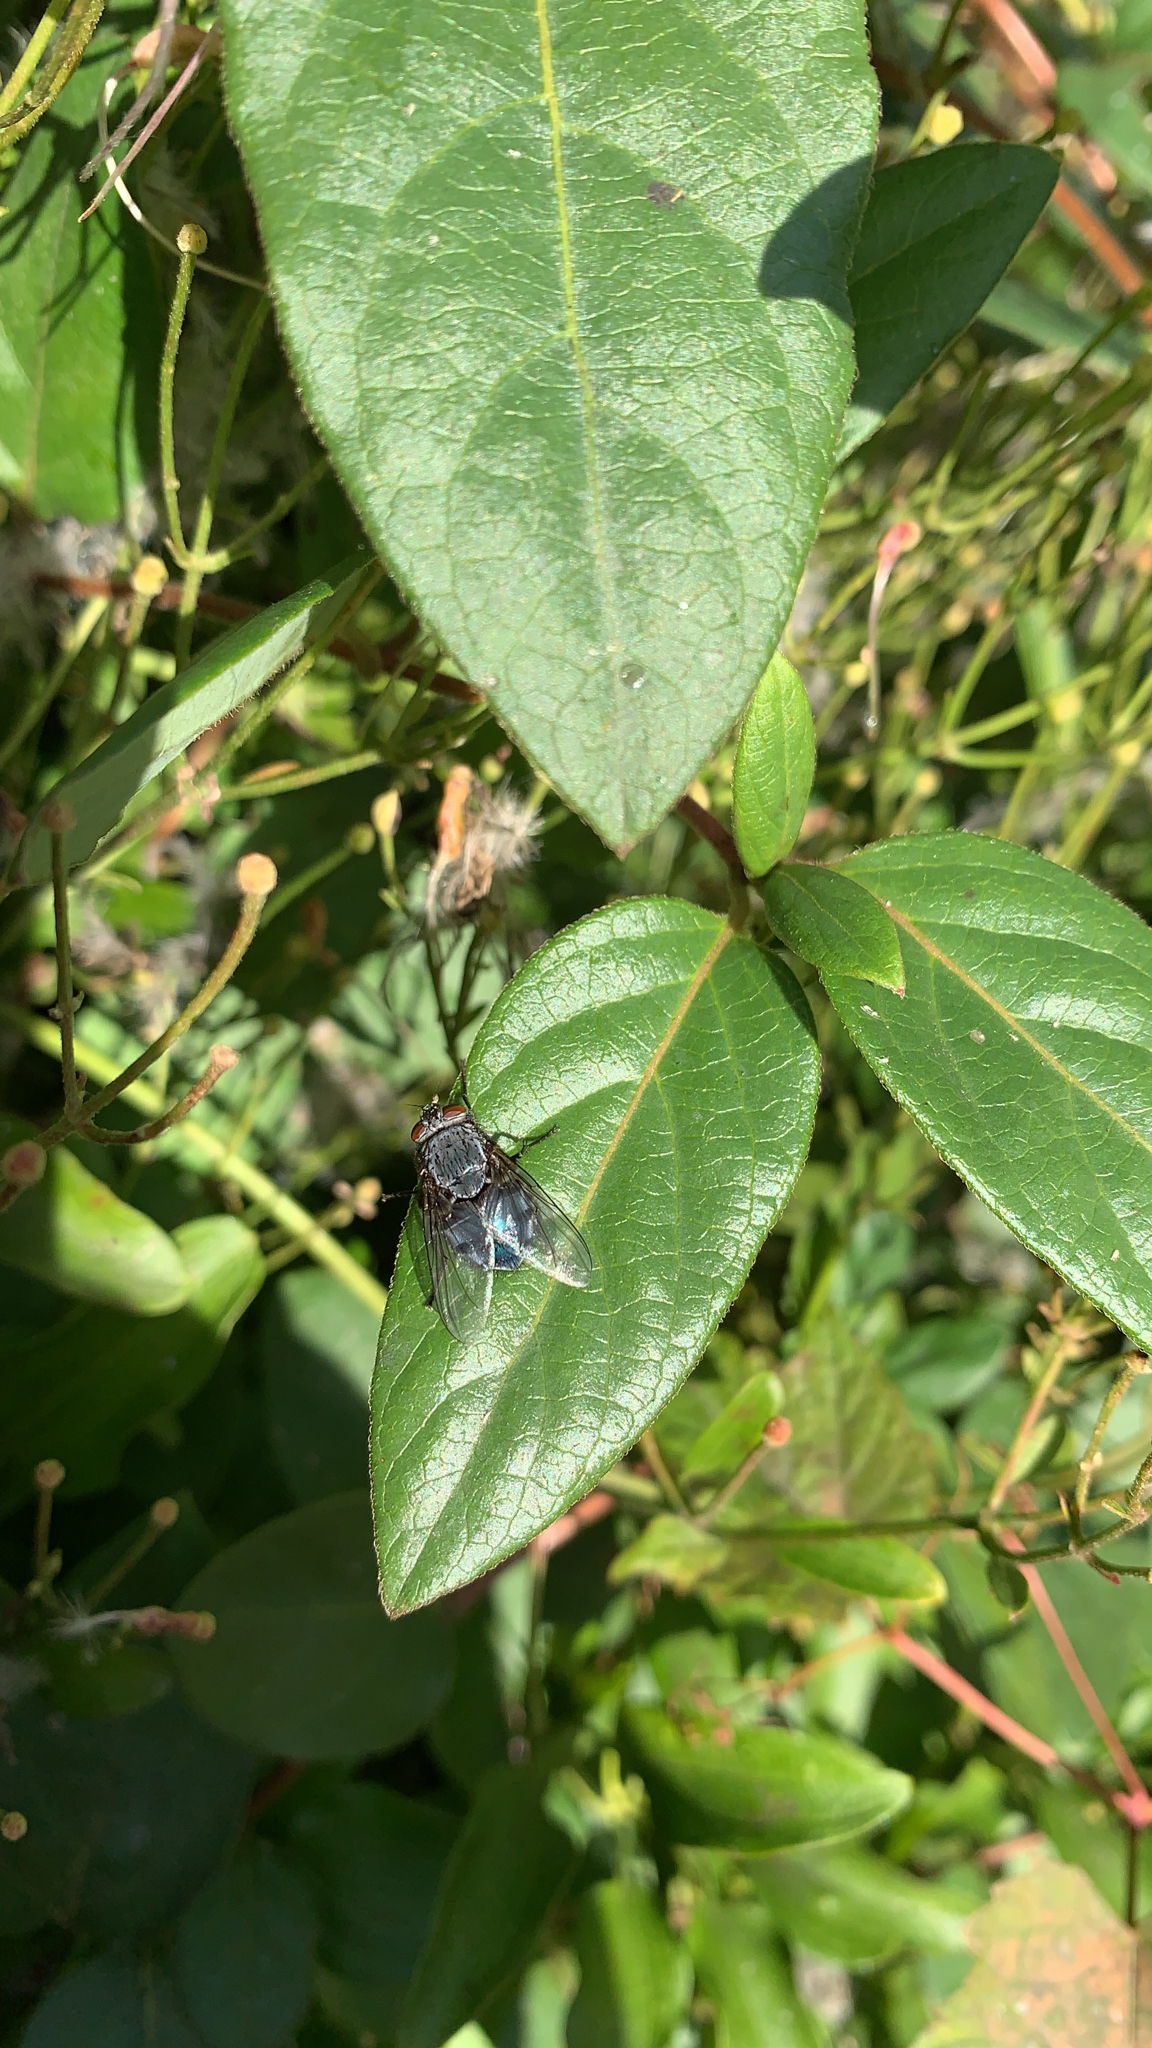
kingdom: Animalia
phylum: Arthropoda
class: Insecta
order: Diptera
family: Calliphoridae
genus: Calliphora
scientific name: Calliphora vicina
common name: Common blow flie
